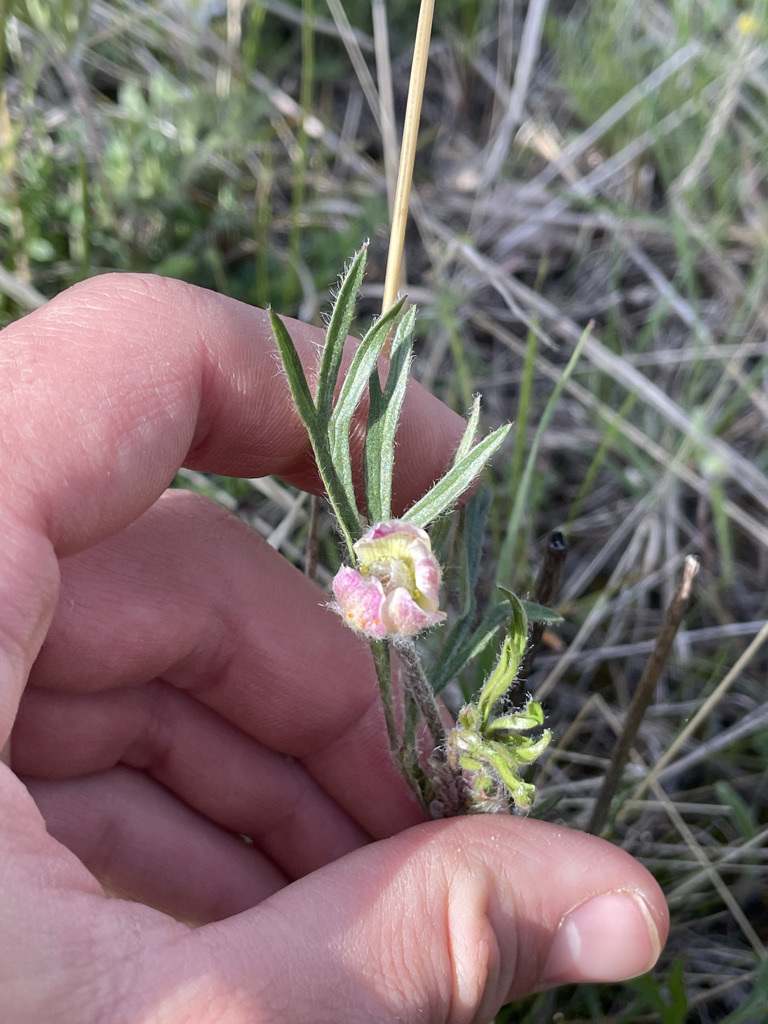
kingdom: Plantae
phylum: Tracheophyta
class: Magnoliopsida
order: Ranunculales
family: Ranunculaceae
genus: Anemone
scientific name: Anemone multifida
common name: Bird's-foot anemone
